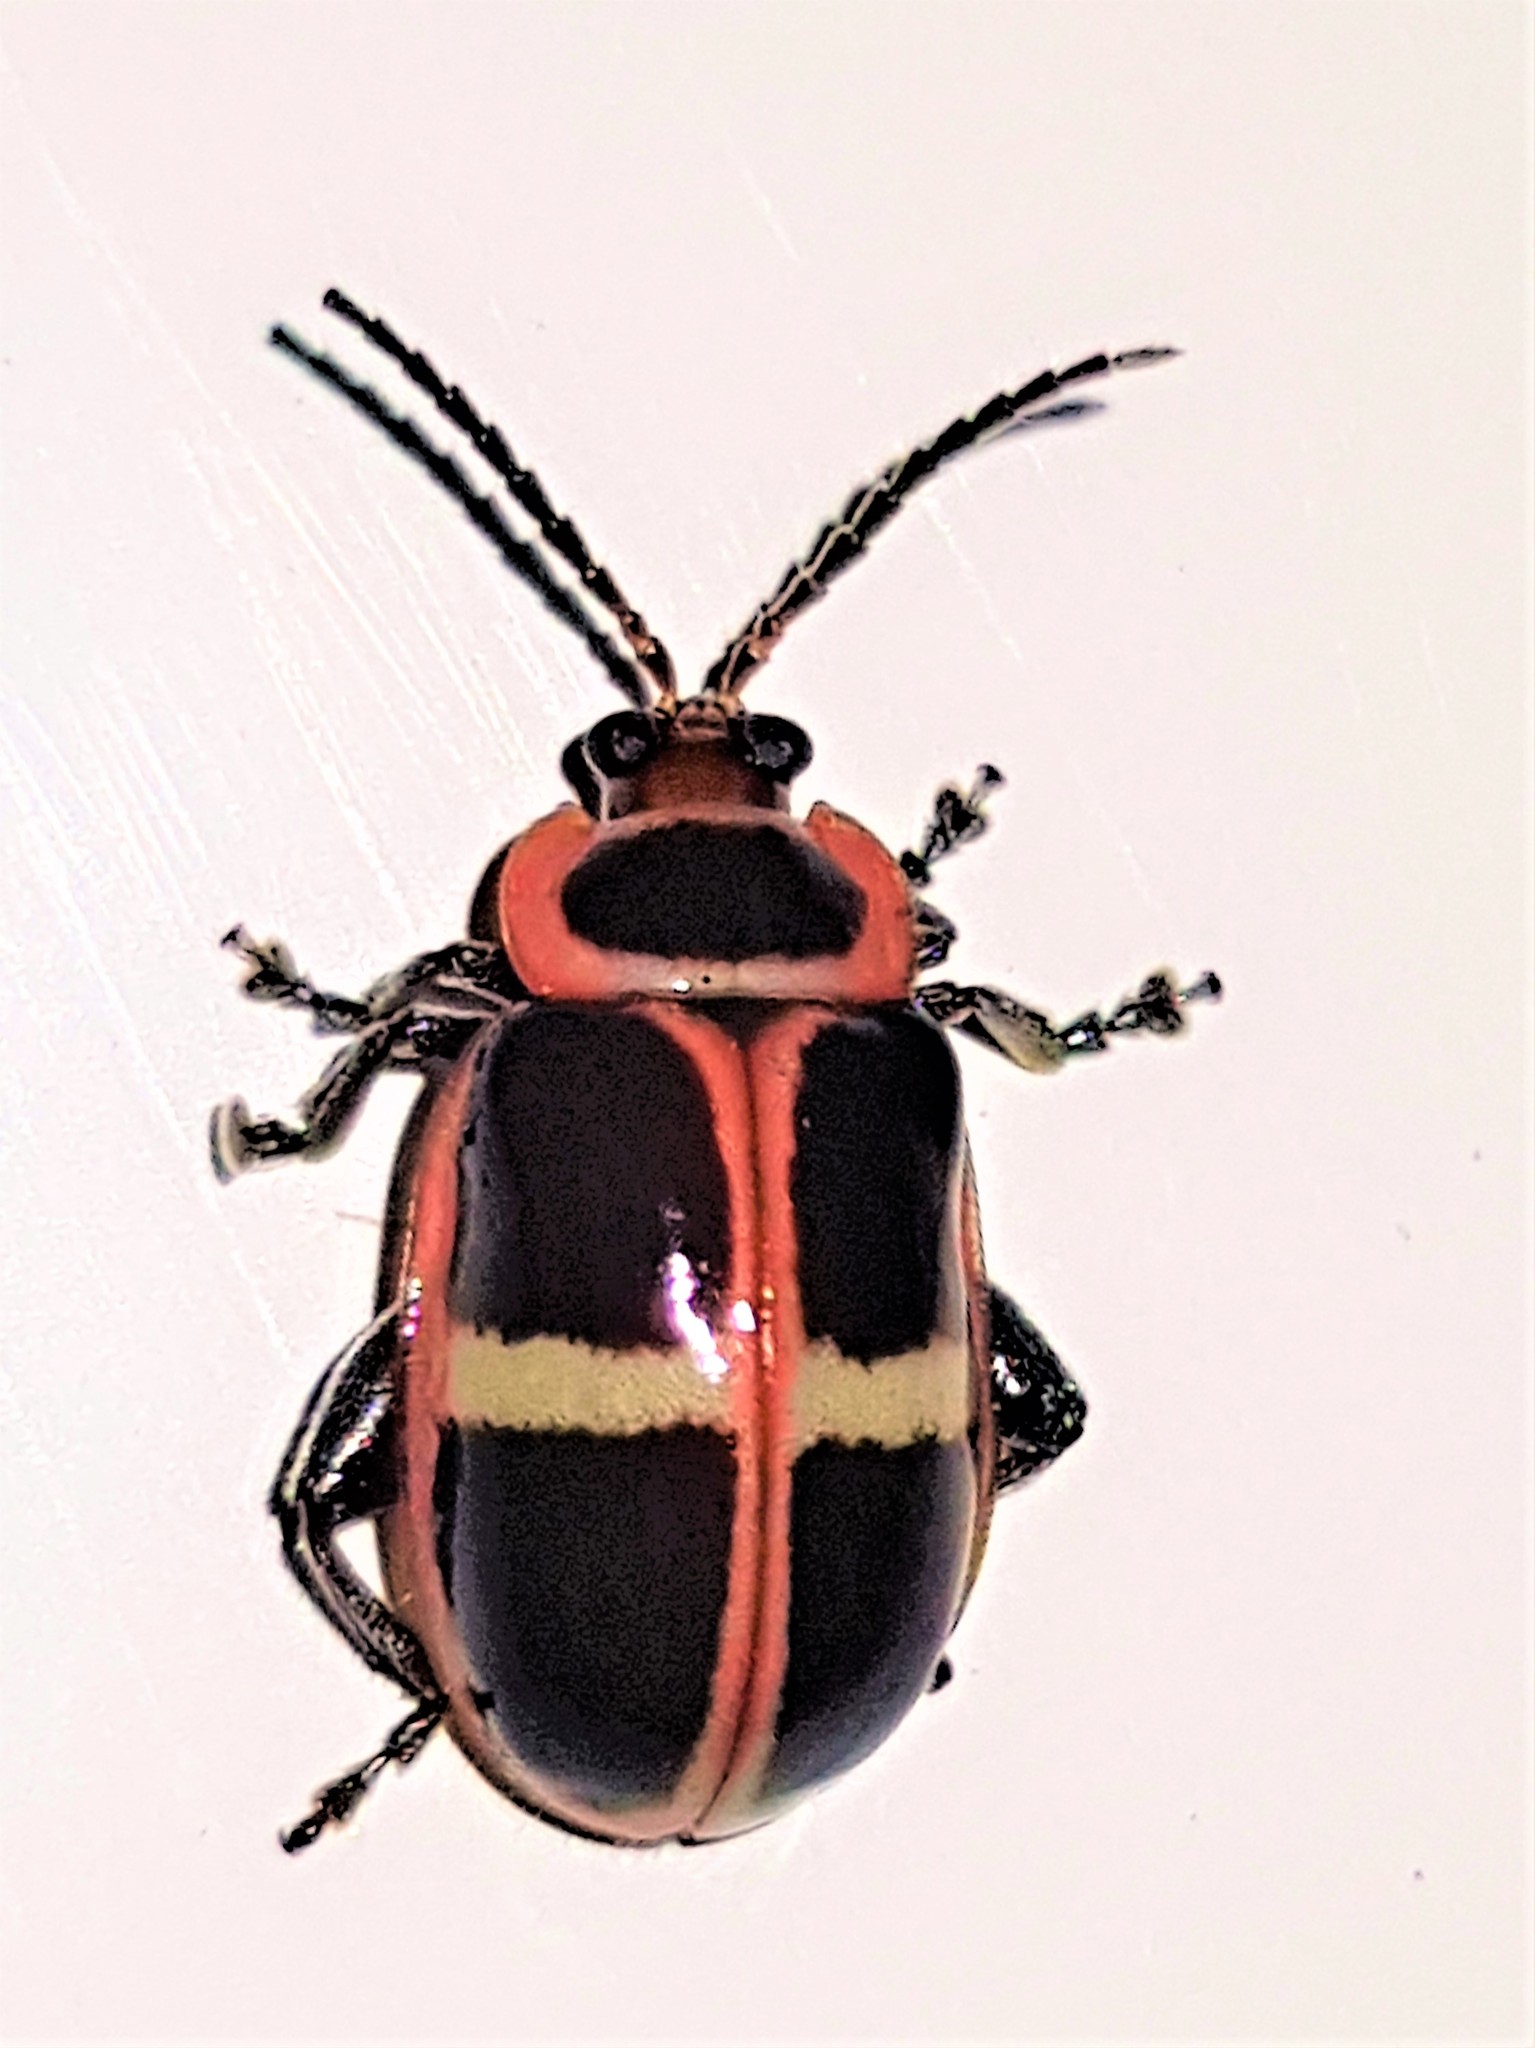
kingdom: Animalia
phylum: Arthropoda
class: Insecta
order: Coleoptera
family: Chrysomelidae
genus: Asphaera
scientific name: Asphaera
